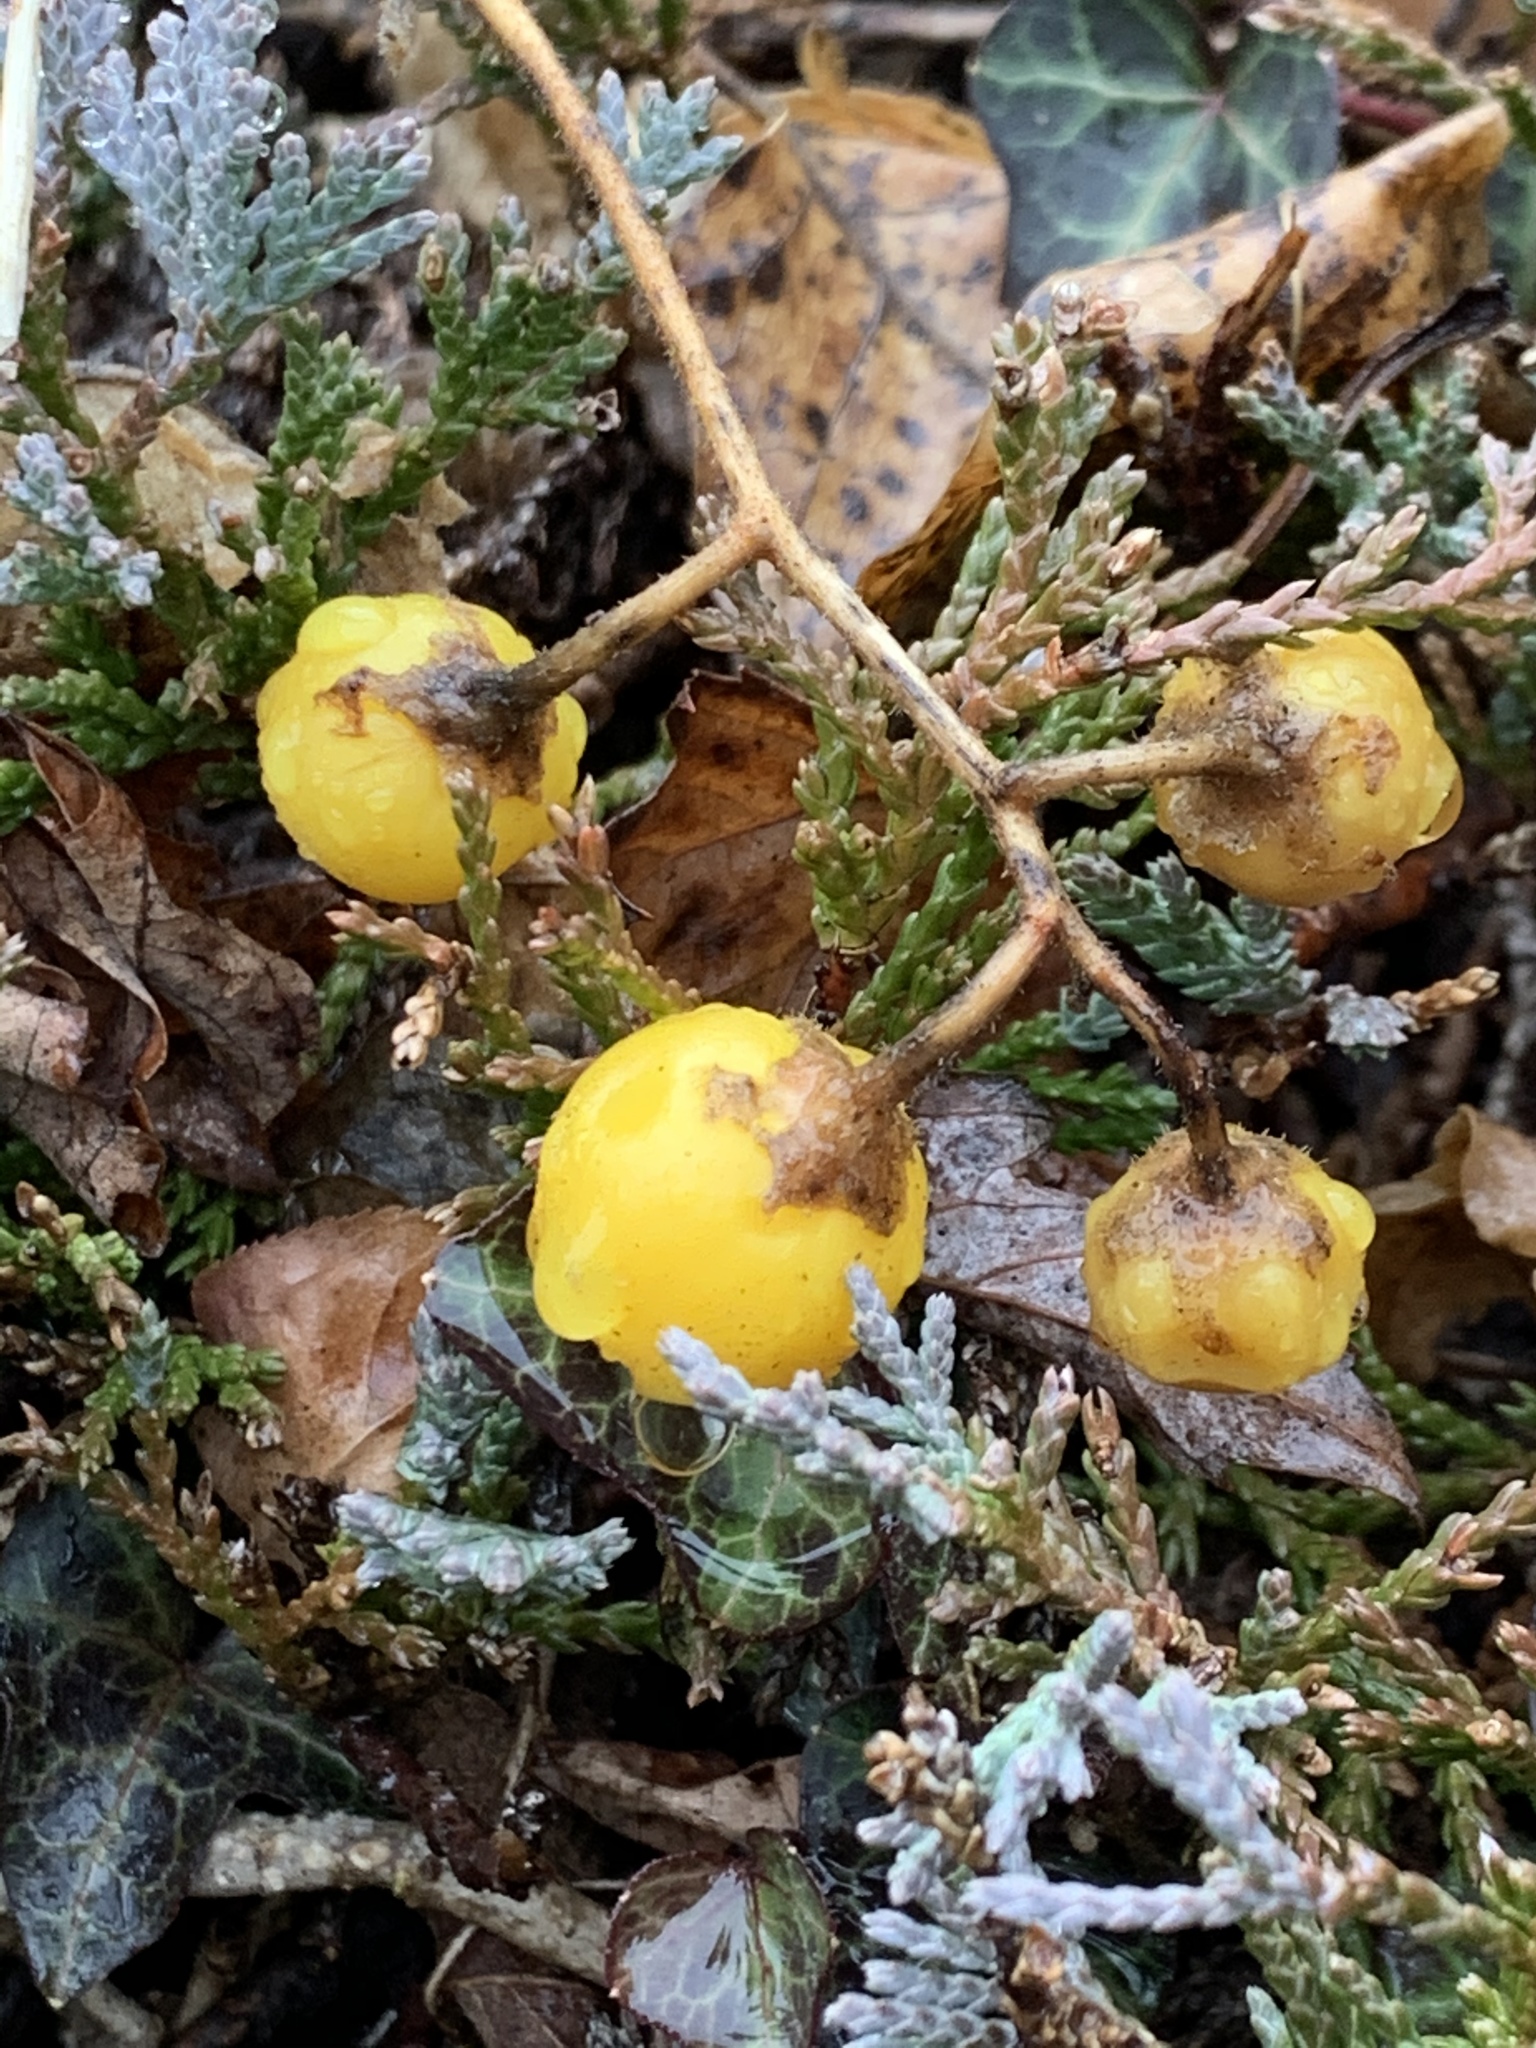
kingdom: Plantae
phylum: Tracheophyta
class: Magnoliopsida
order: Solanales
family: Solanaceae
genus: Solanum
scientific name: Solanum carolinense
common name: Horse-nettle
